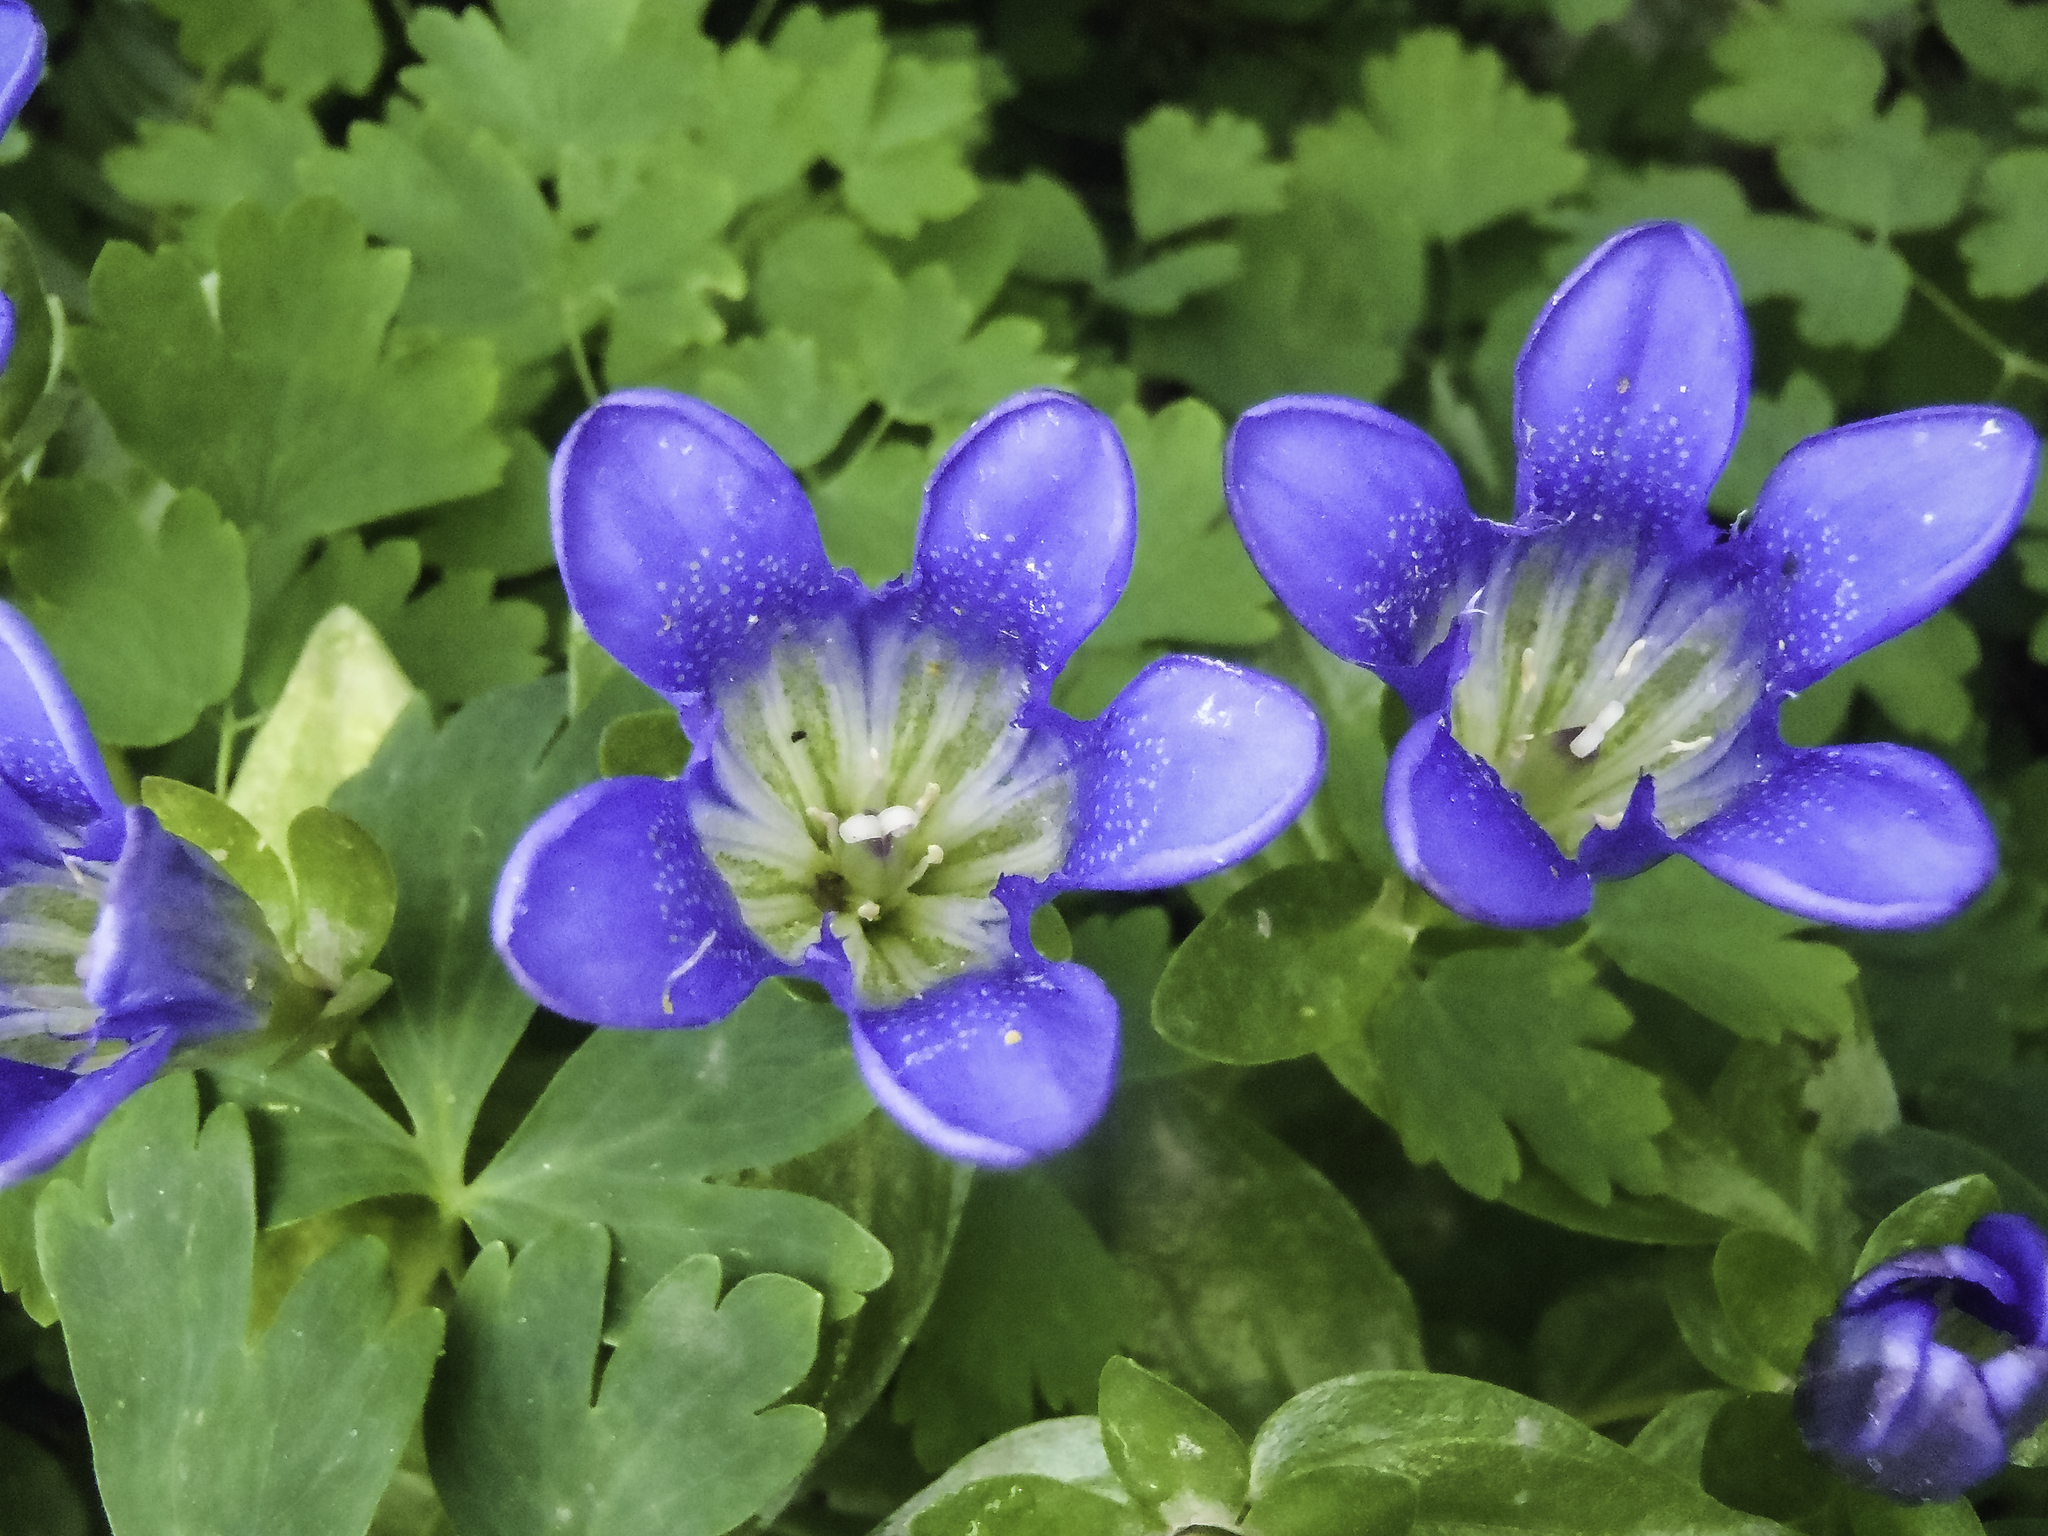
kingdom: Plantae
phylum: Tracheophyta
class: Magnoliopsida
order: Gentianales
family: Gentianaceae
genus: Gentiana
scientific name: Gentiana calycosa
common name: Rainier pleated gentian
